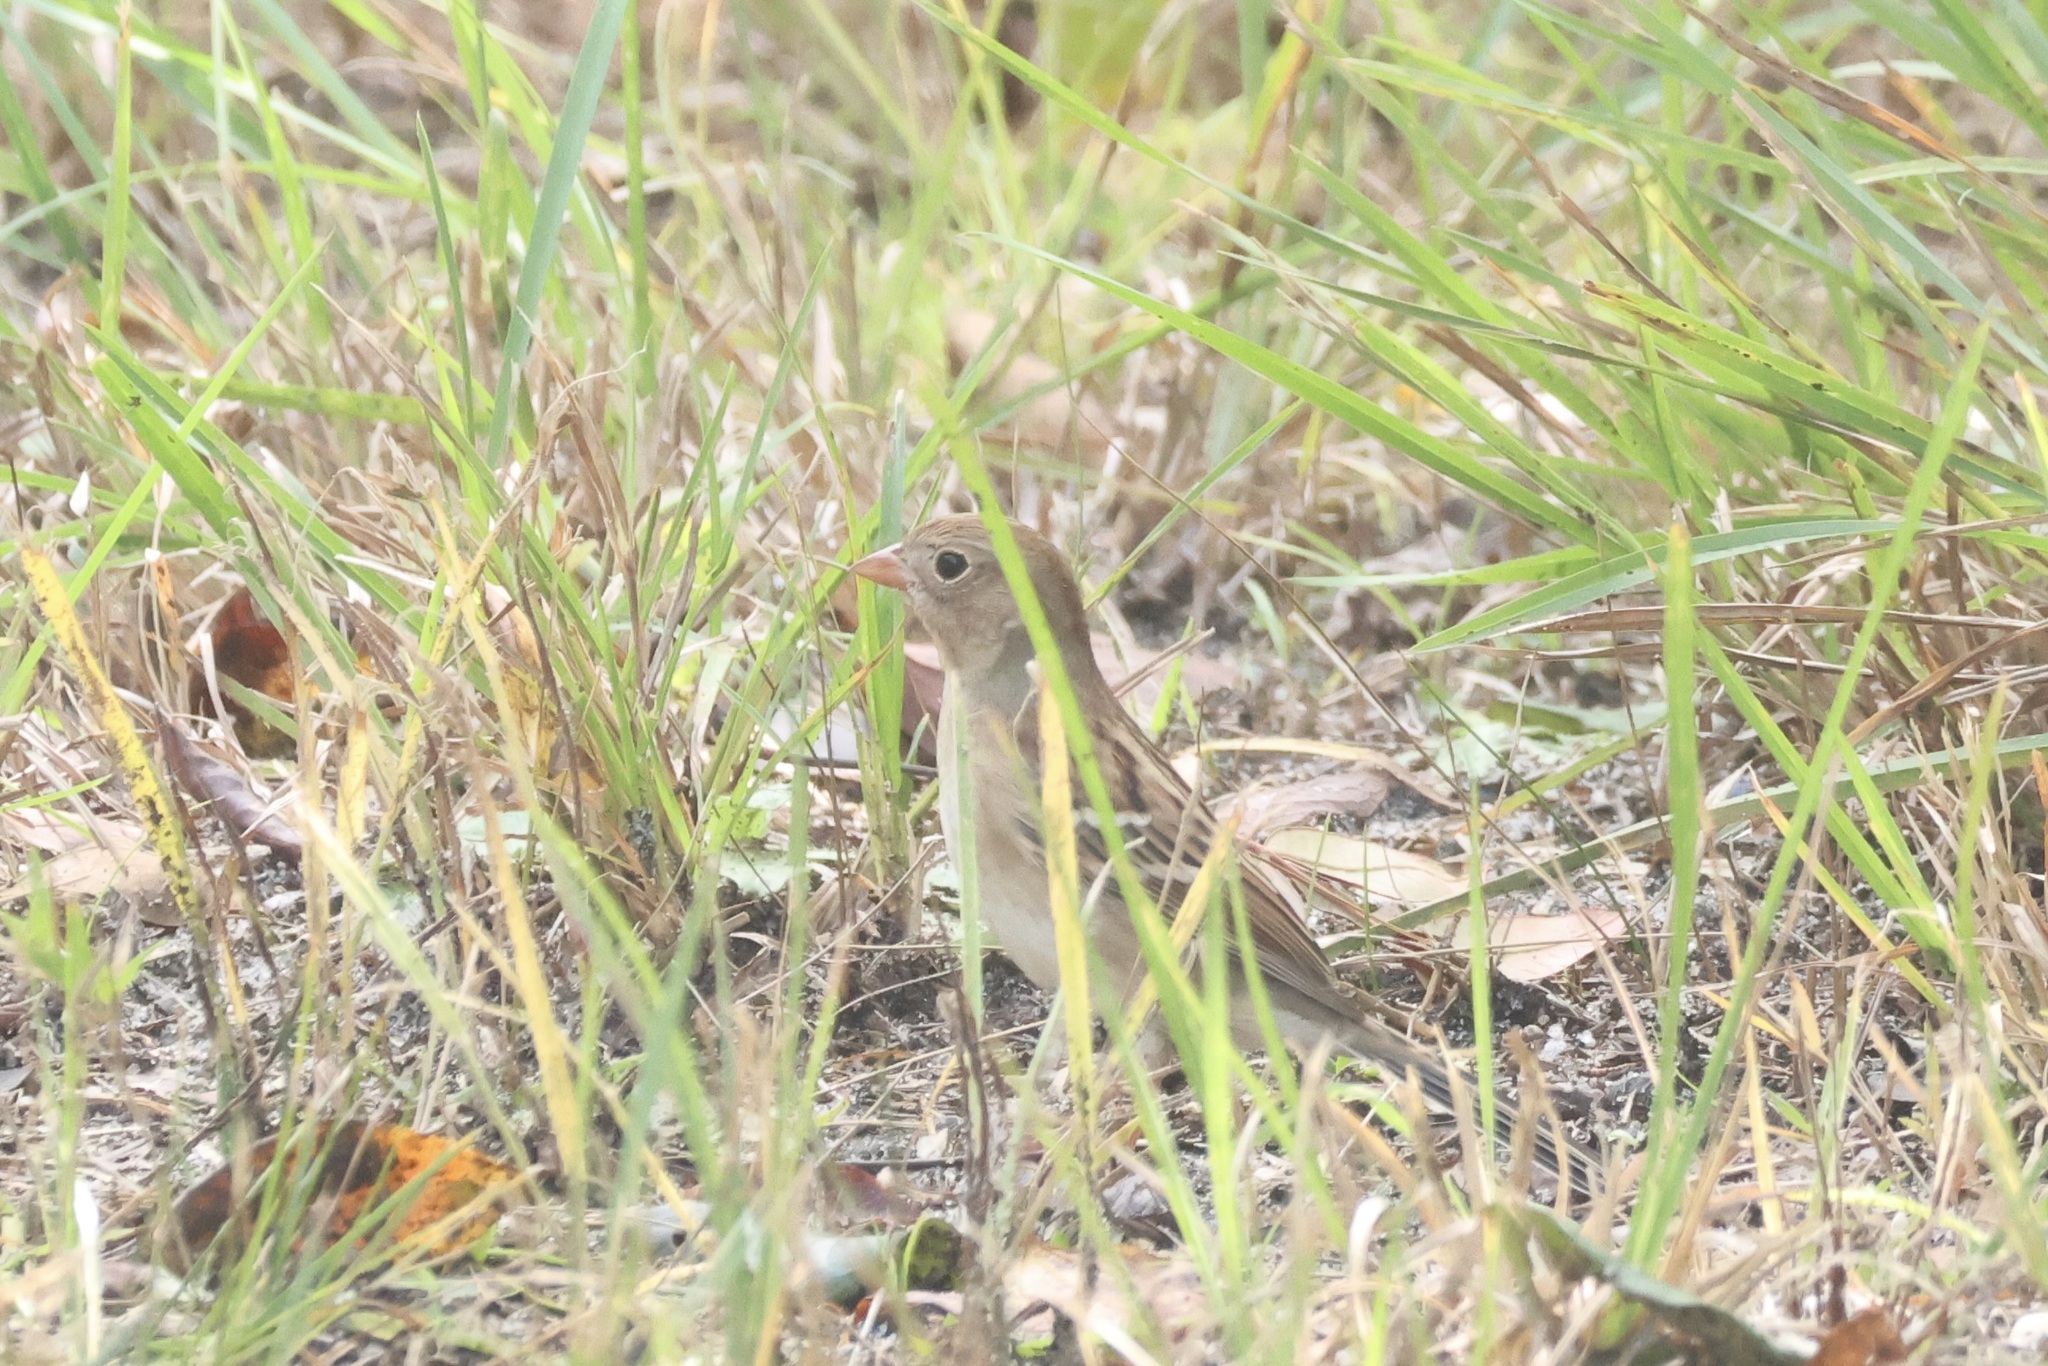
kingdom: Animalia
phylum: Chordata
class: Aves
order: Passeriformes
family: Passerellidae
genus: Spizella
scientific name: Spizella pusilla
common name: Field sparrow
